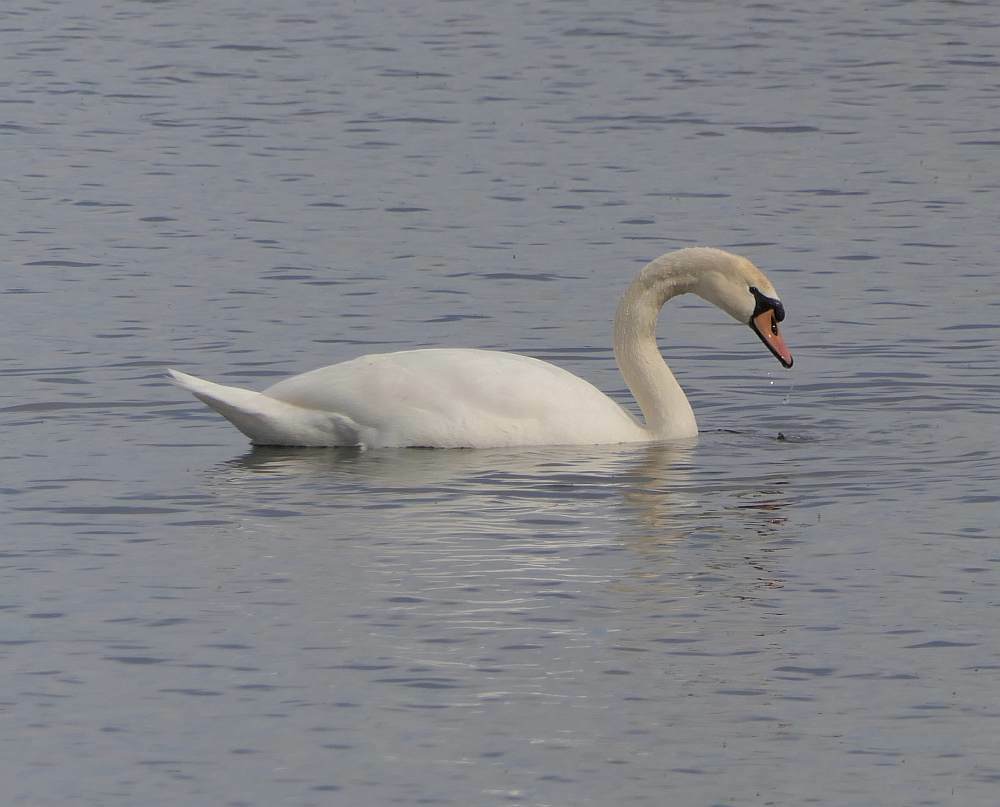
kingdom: Animalia
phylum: Chordata
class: Aves
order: Anseriformes
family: Anatidae
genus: Cygnus
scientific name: Cygnus olor
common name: Mute swan
